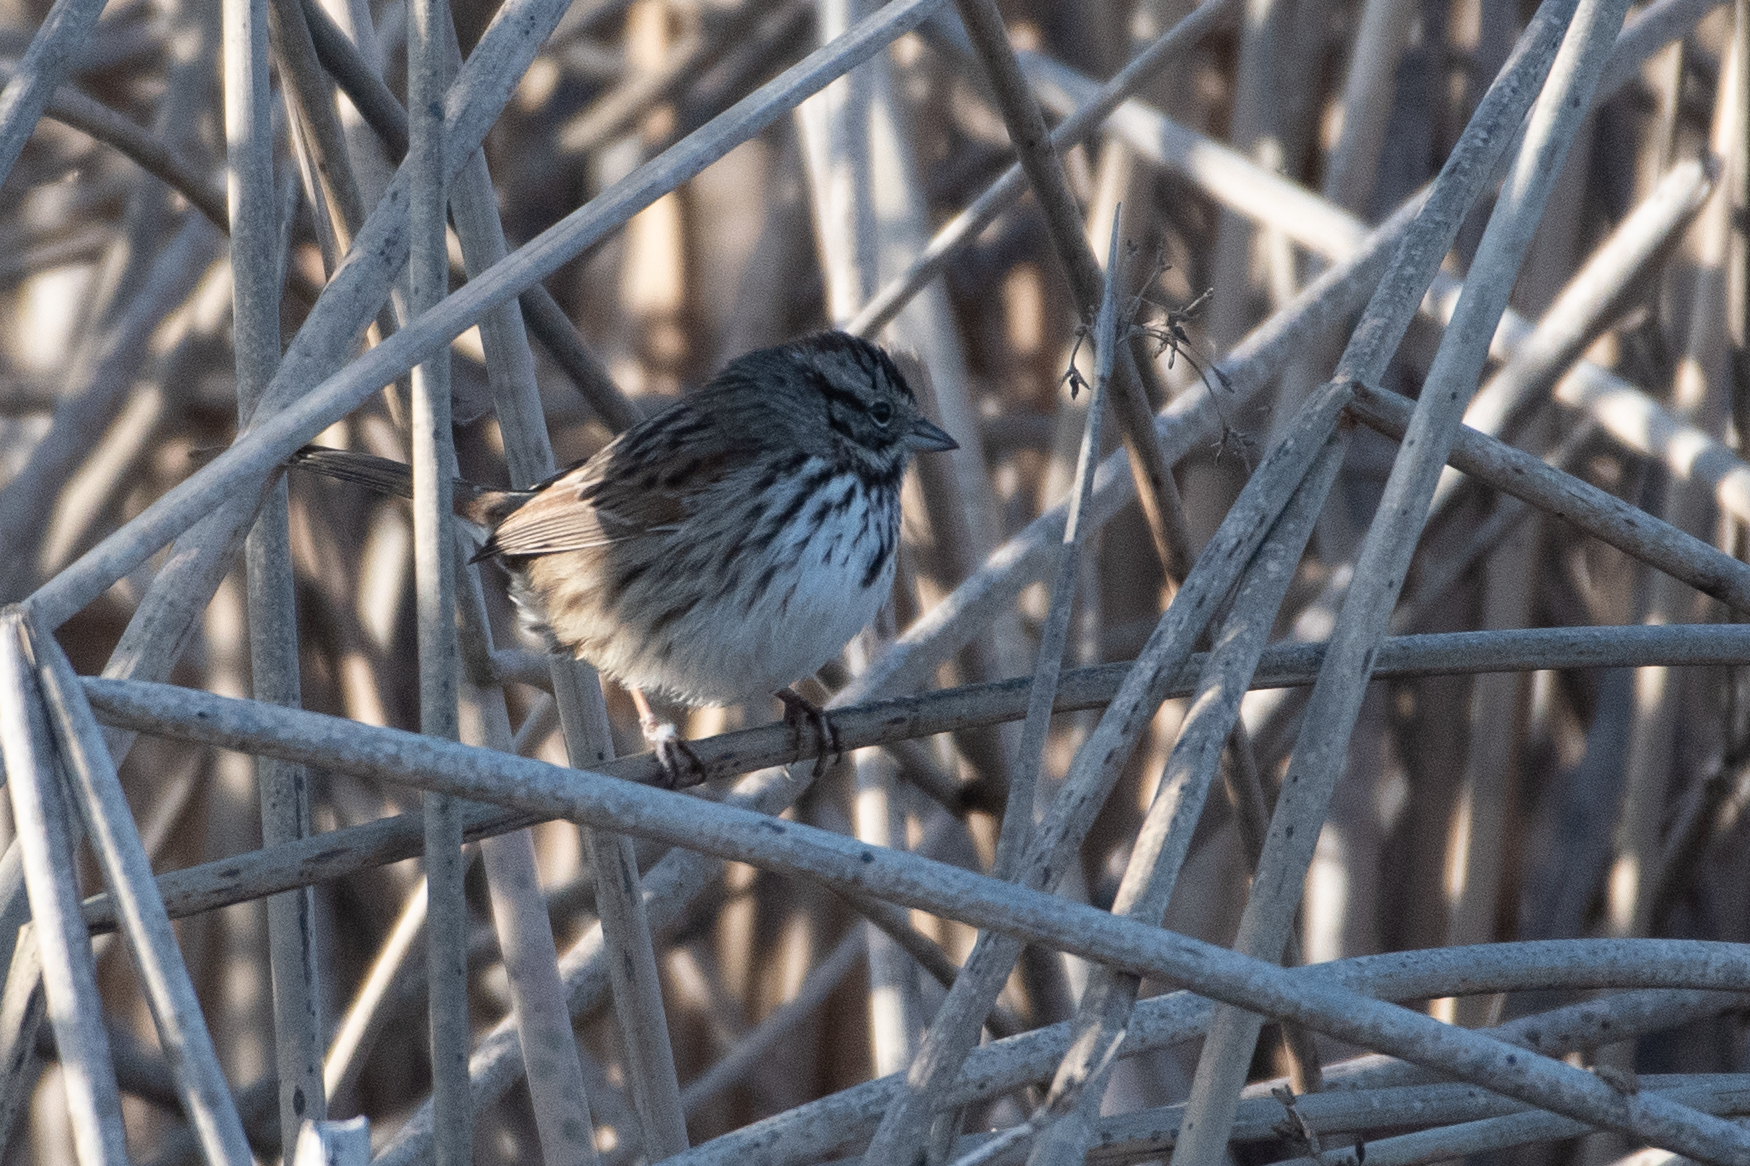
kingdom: Animalia
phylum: Chordata
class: Aves
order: Passeriformes
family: Passerellidae
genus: Melospiza
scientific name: Melospiza melodia
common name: Song sparrow
